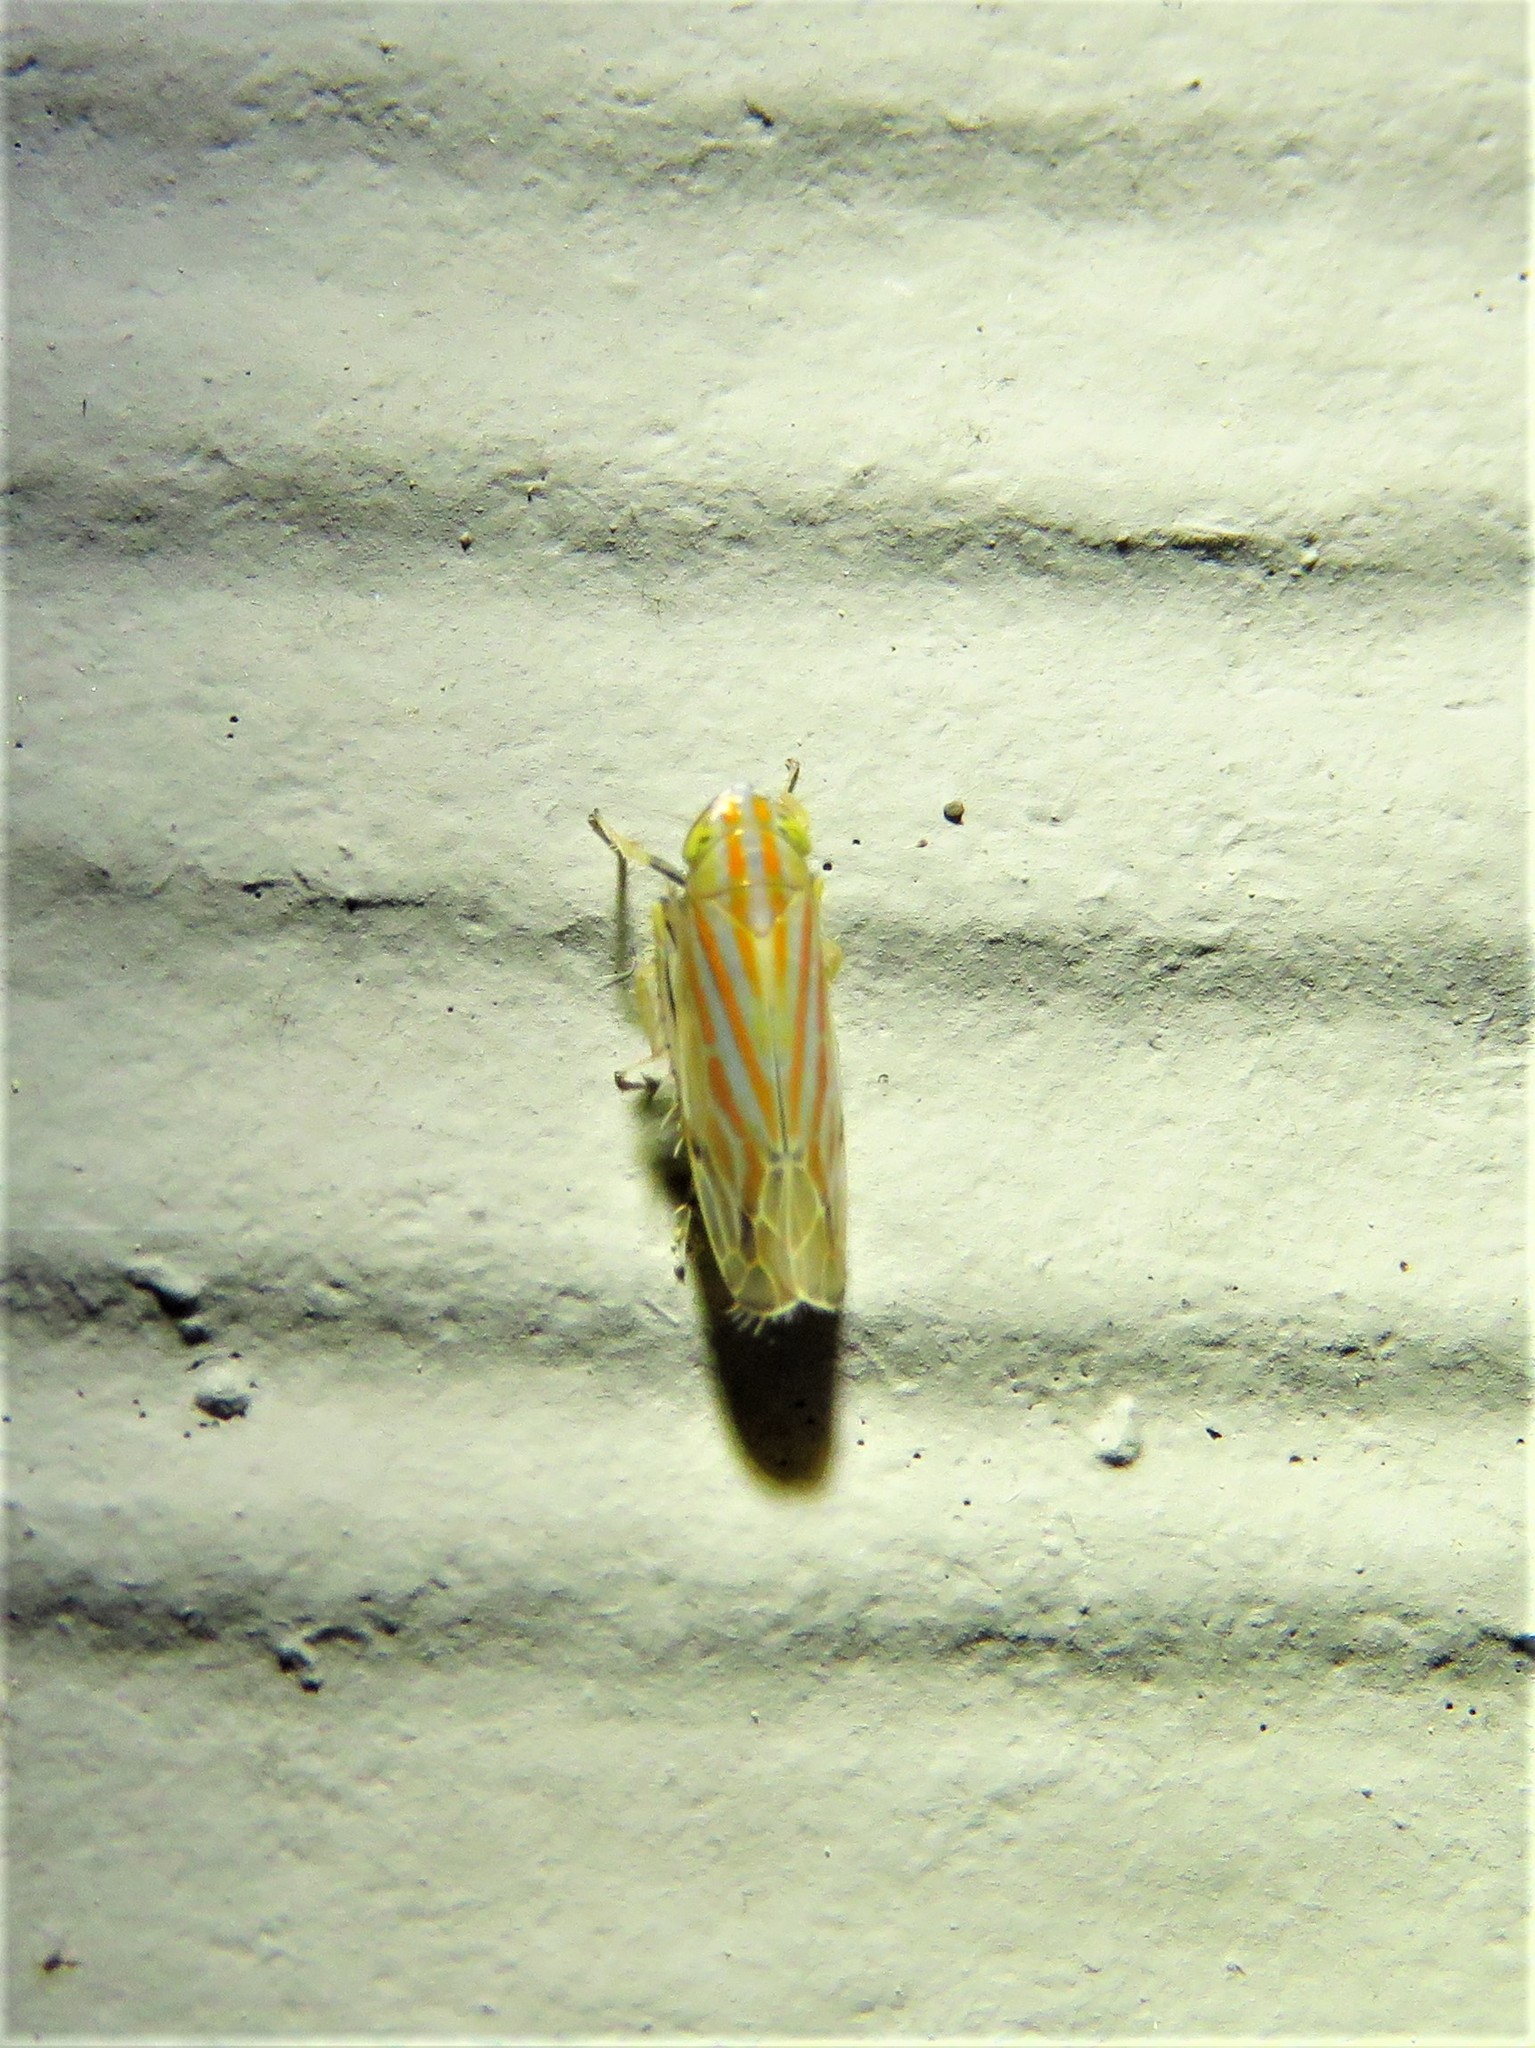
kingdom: Animalia
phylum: Arthropoda
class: Insecta
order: Hemiptera
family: Cicadellidae
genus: Deltanus
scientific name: Deltanus texanus
